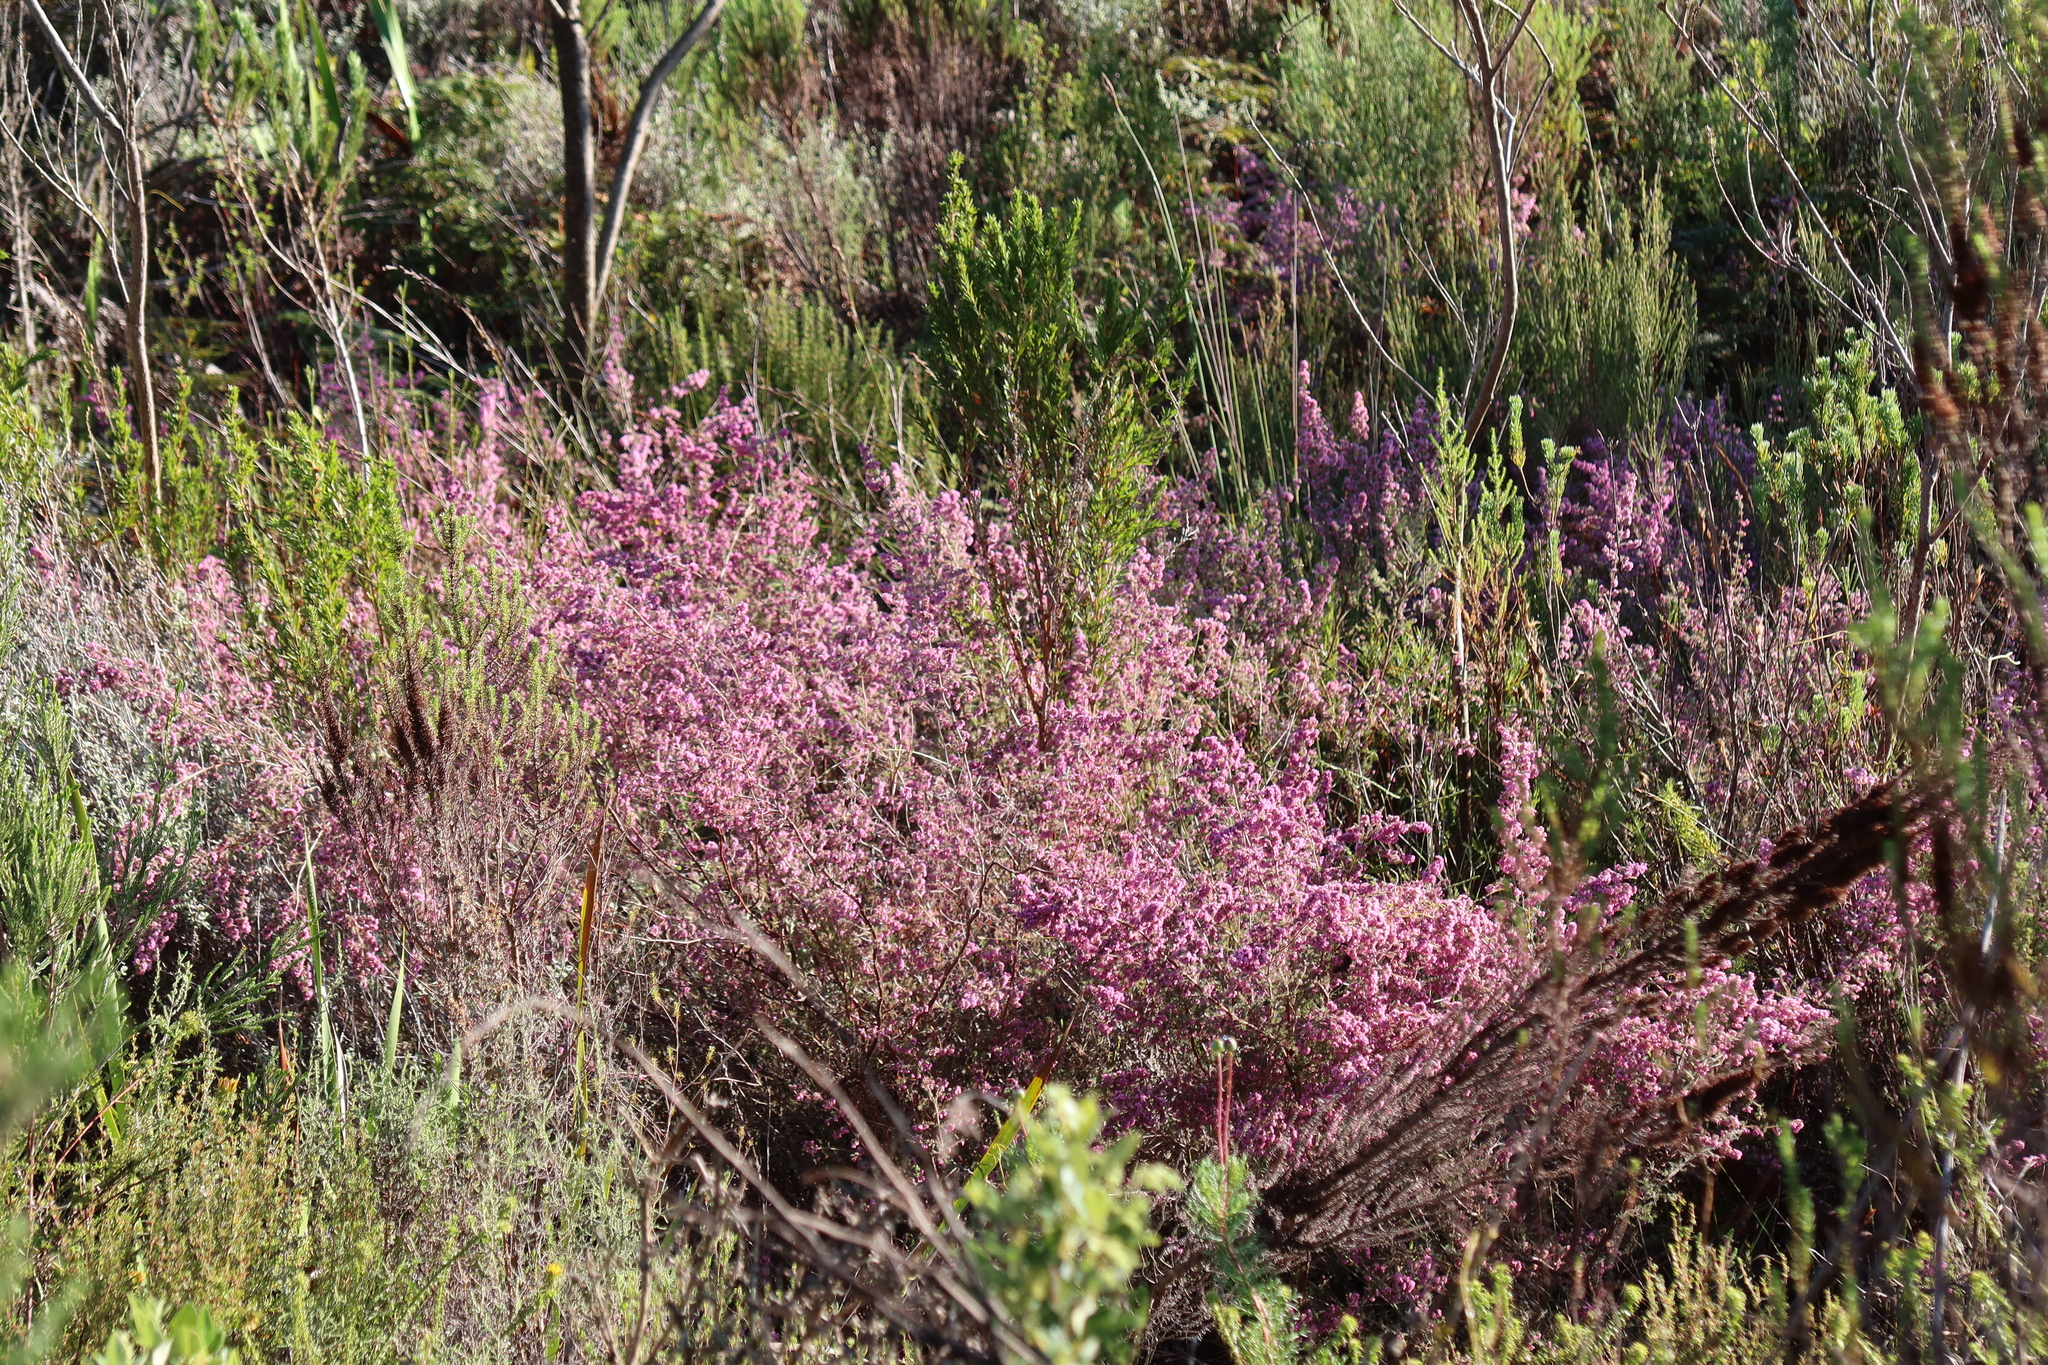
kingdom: Plantae
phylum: Tracheophyta
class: Magnoliopsida
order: Ericales
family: Ericaceae
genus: Erica
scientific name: Erica parviflora
